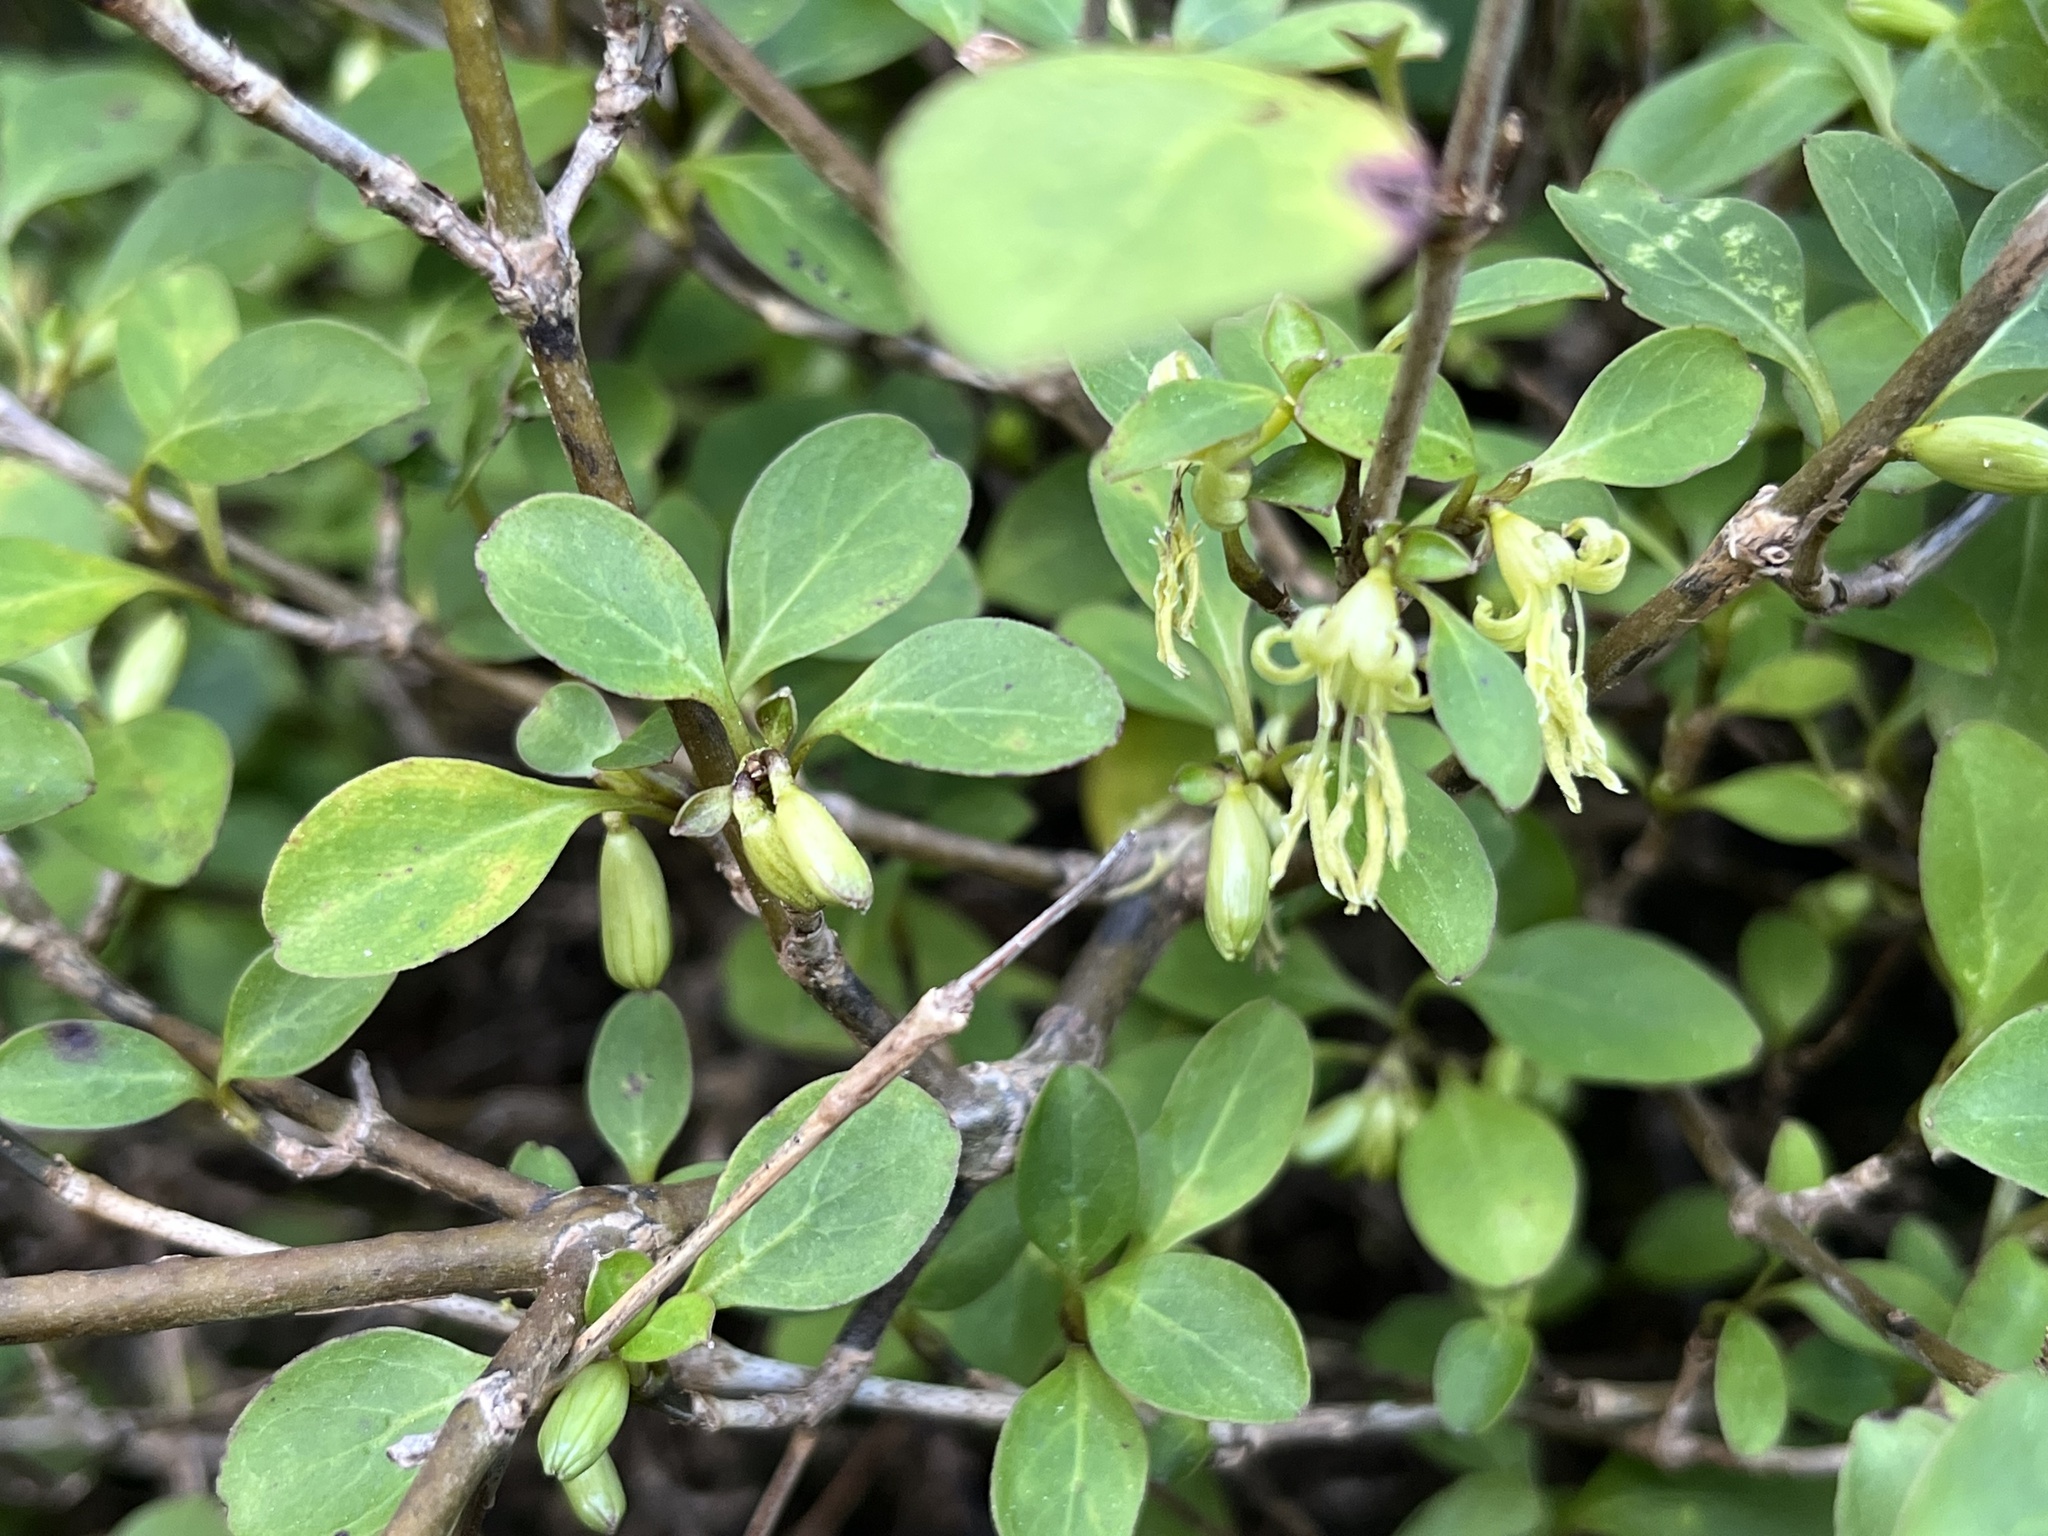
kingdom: Plantae
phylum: Tracheophyta
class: Magnoliopsida
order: Gentianales
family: Rubiaceae
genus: Coprosma
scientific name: Coprosma foetidissima
